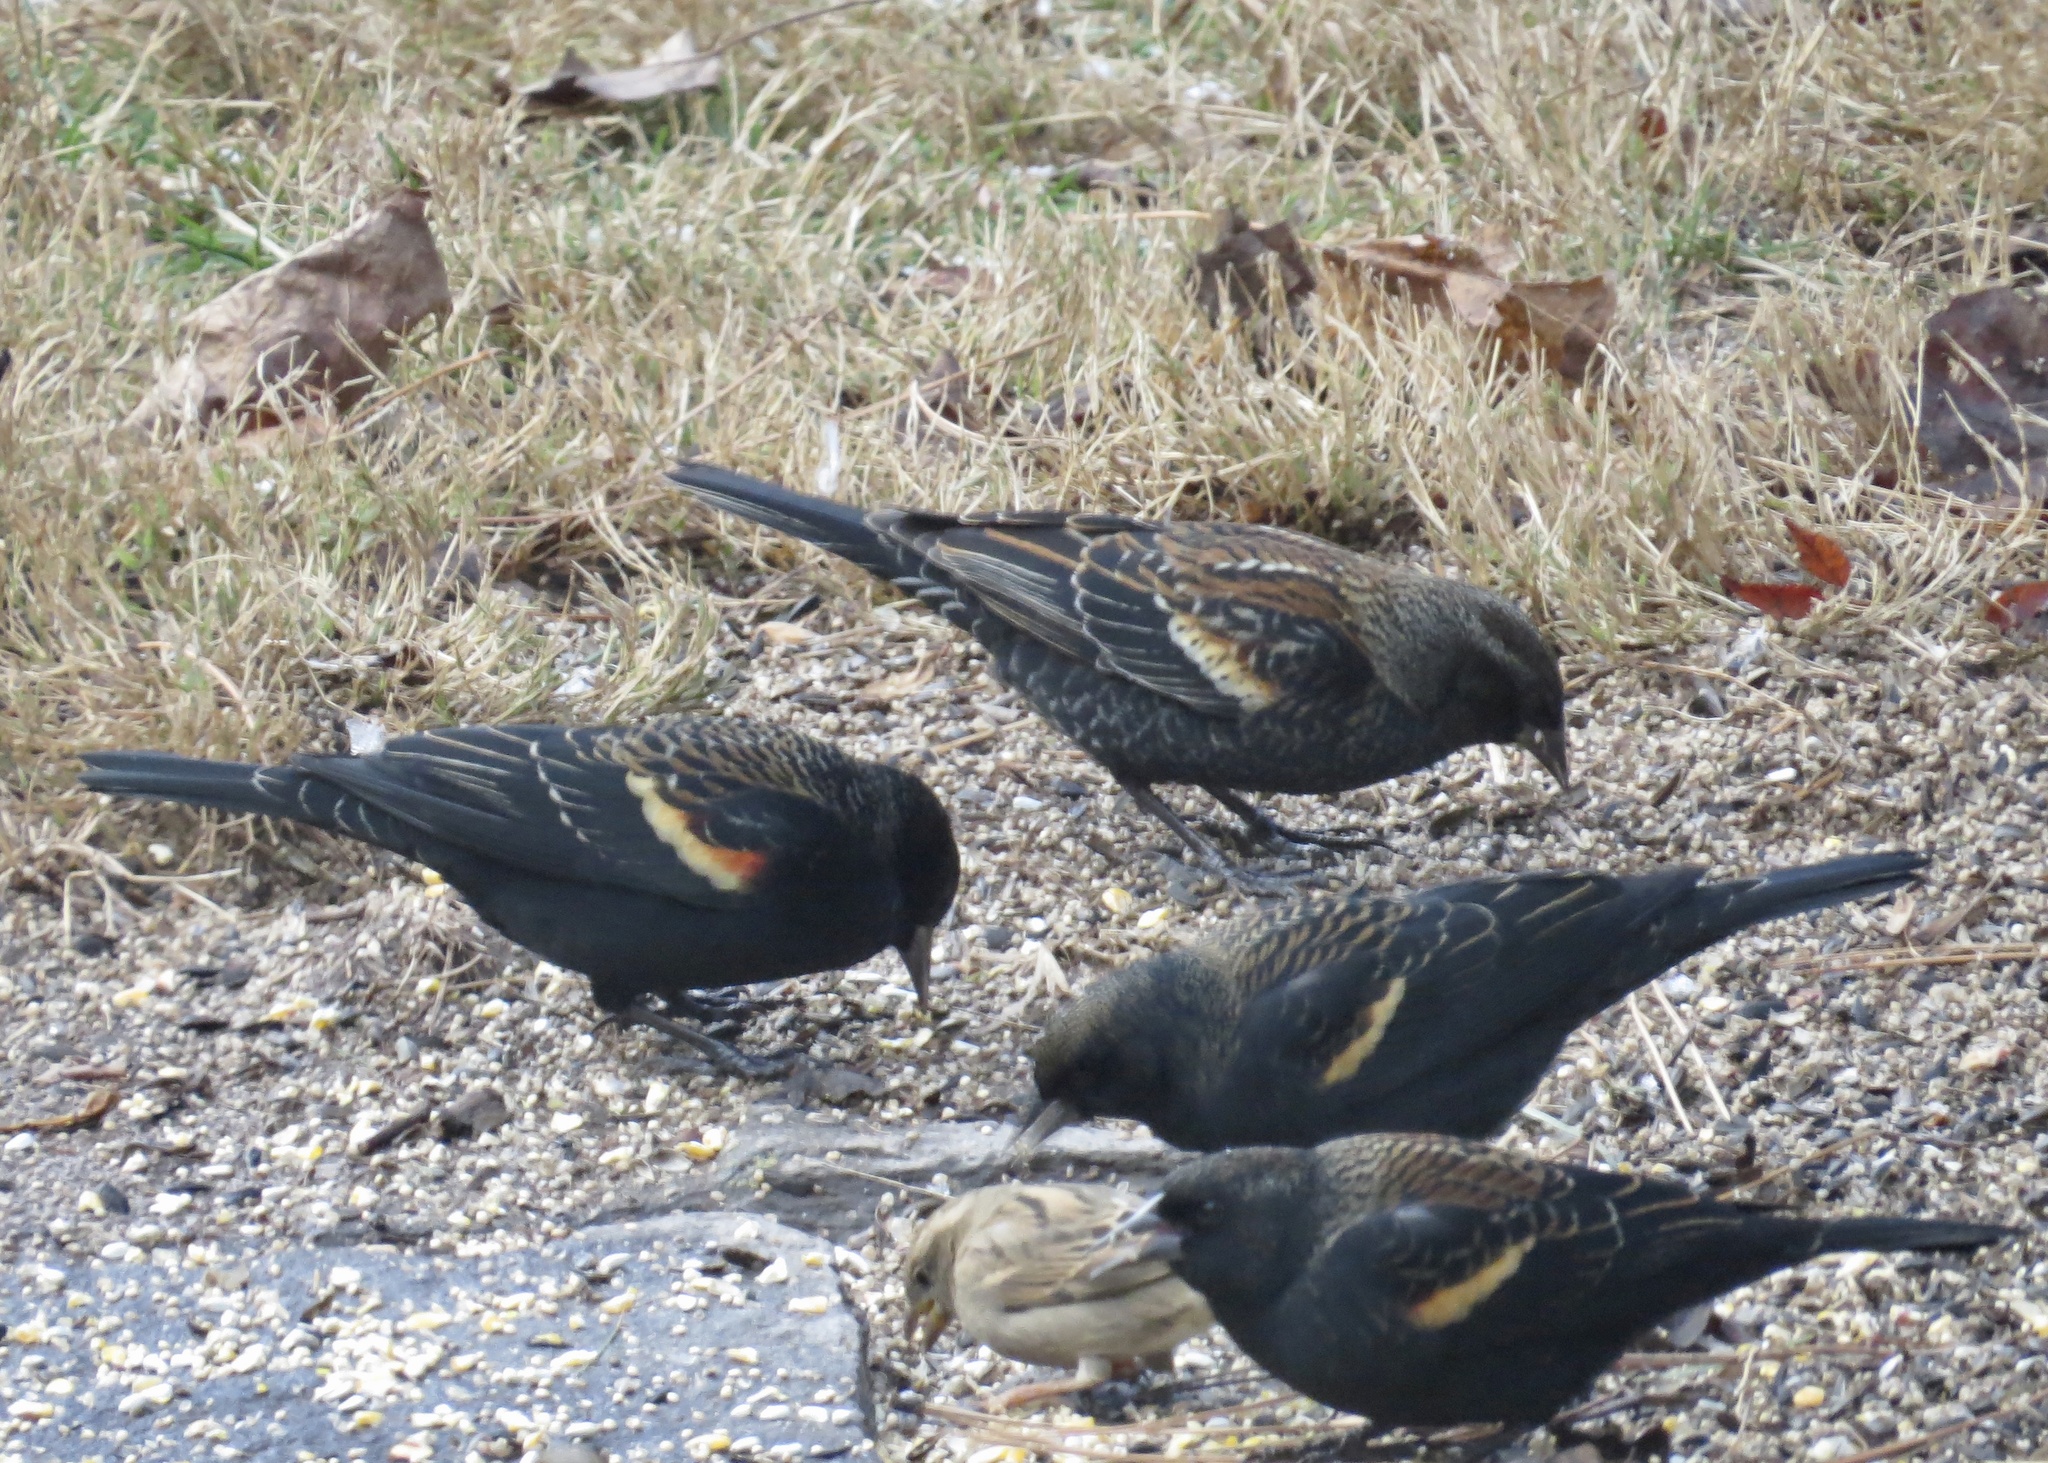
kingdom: Animalia
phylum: Chordata
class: Aves
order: Passeriformes
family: Icteridae
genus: Agelaius
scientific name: Agelaius phoeniceus
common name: Red-winged blackbird
